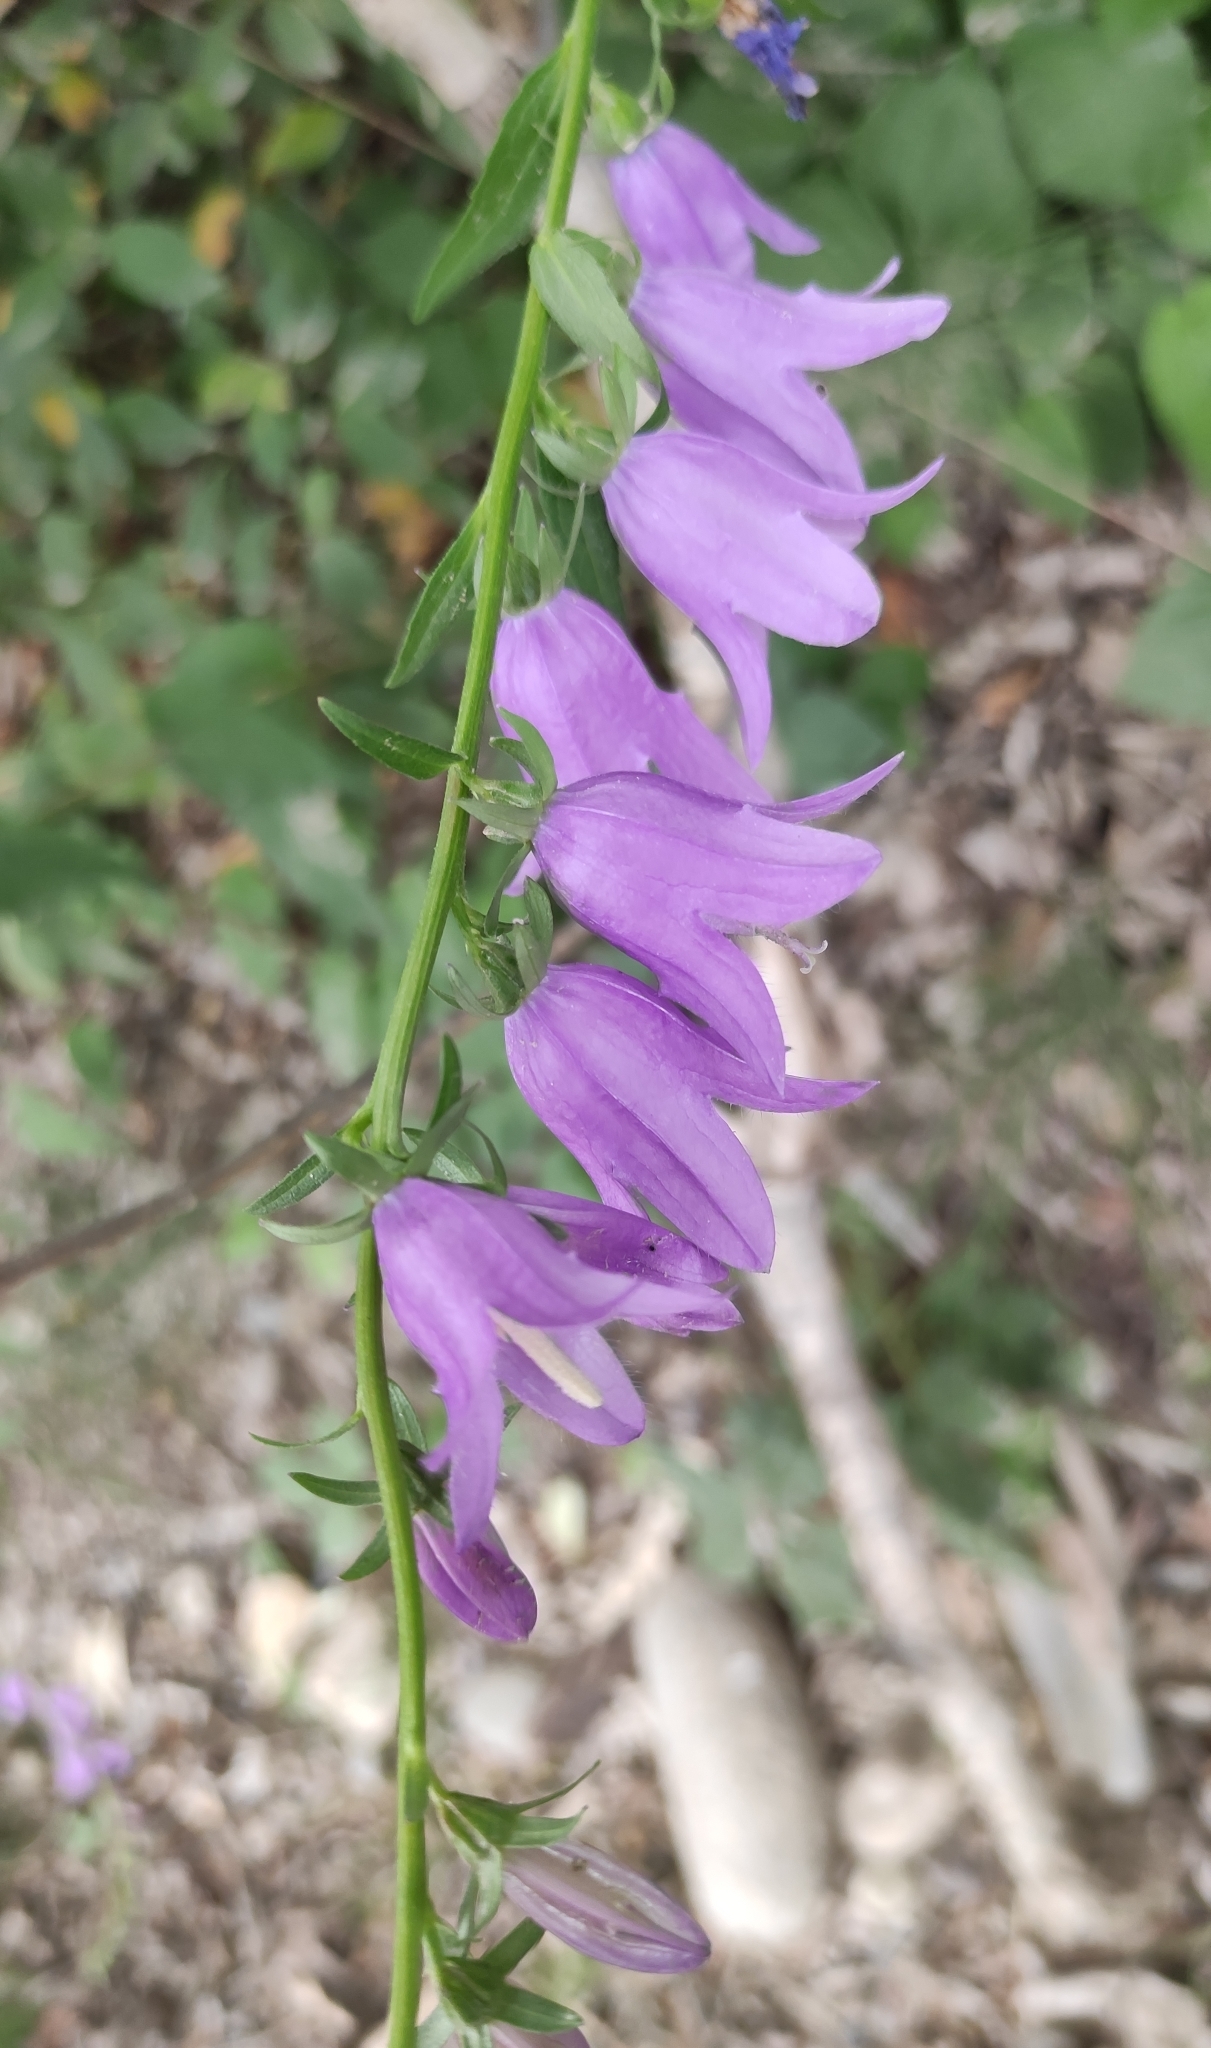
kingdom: Plantae
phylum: Tracheophyta
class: Magnoliopsida
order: Asterales
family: Campanulaceae
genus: Campanula
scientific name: Campanula rapunculoides
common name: Creeping bellflower
